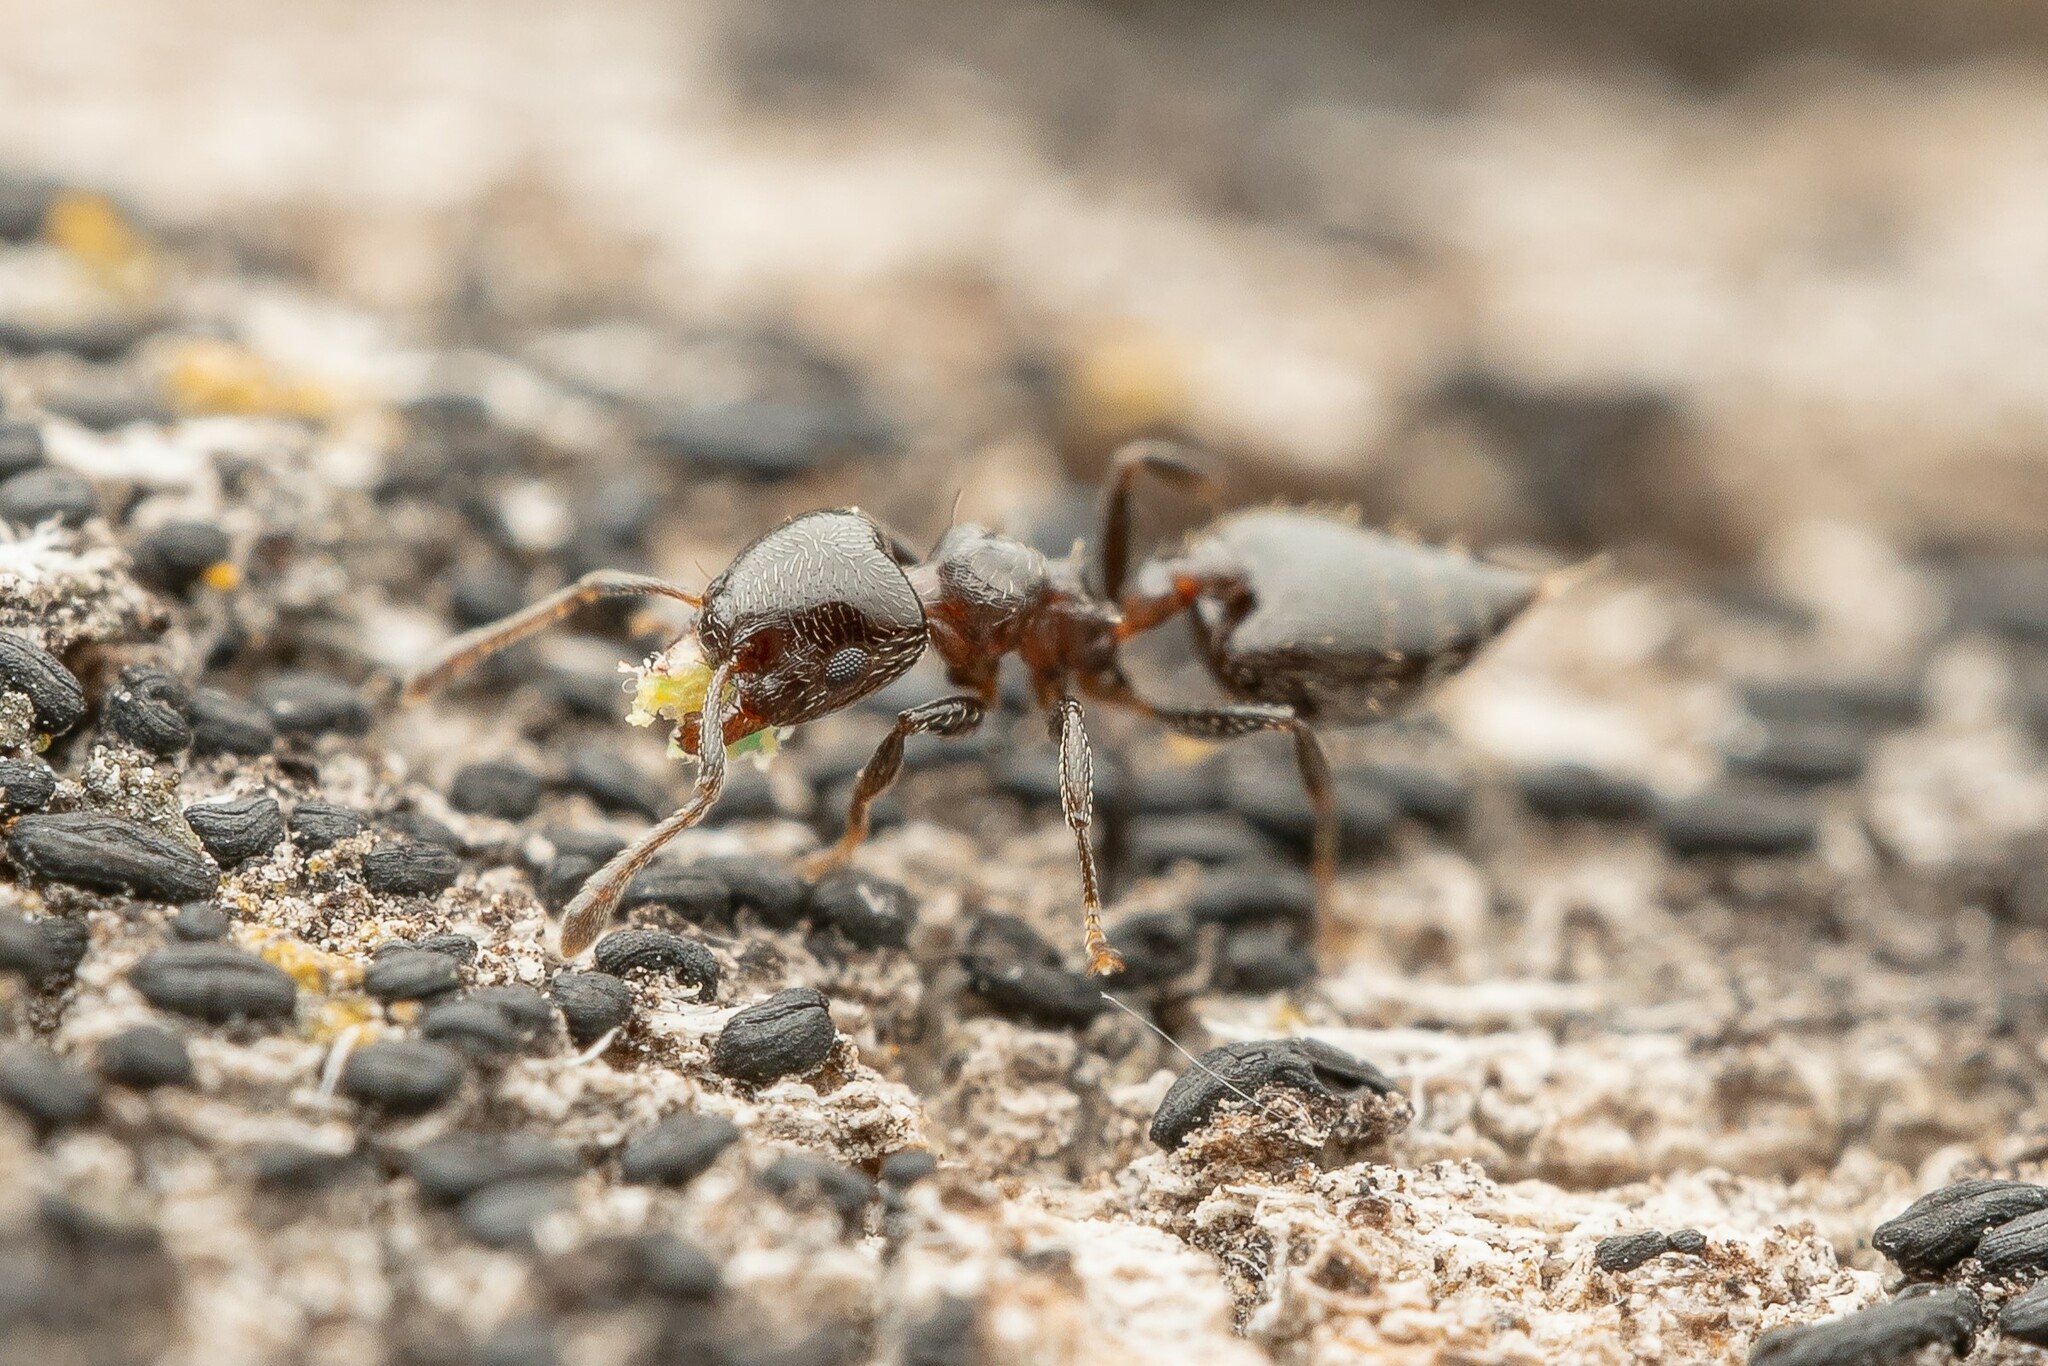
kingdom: Animalia
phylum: Arthropoda
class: Insecta
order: Hymenoptera
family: Formicidae
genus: Crematogaster
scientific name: Crematogaster torosa
